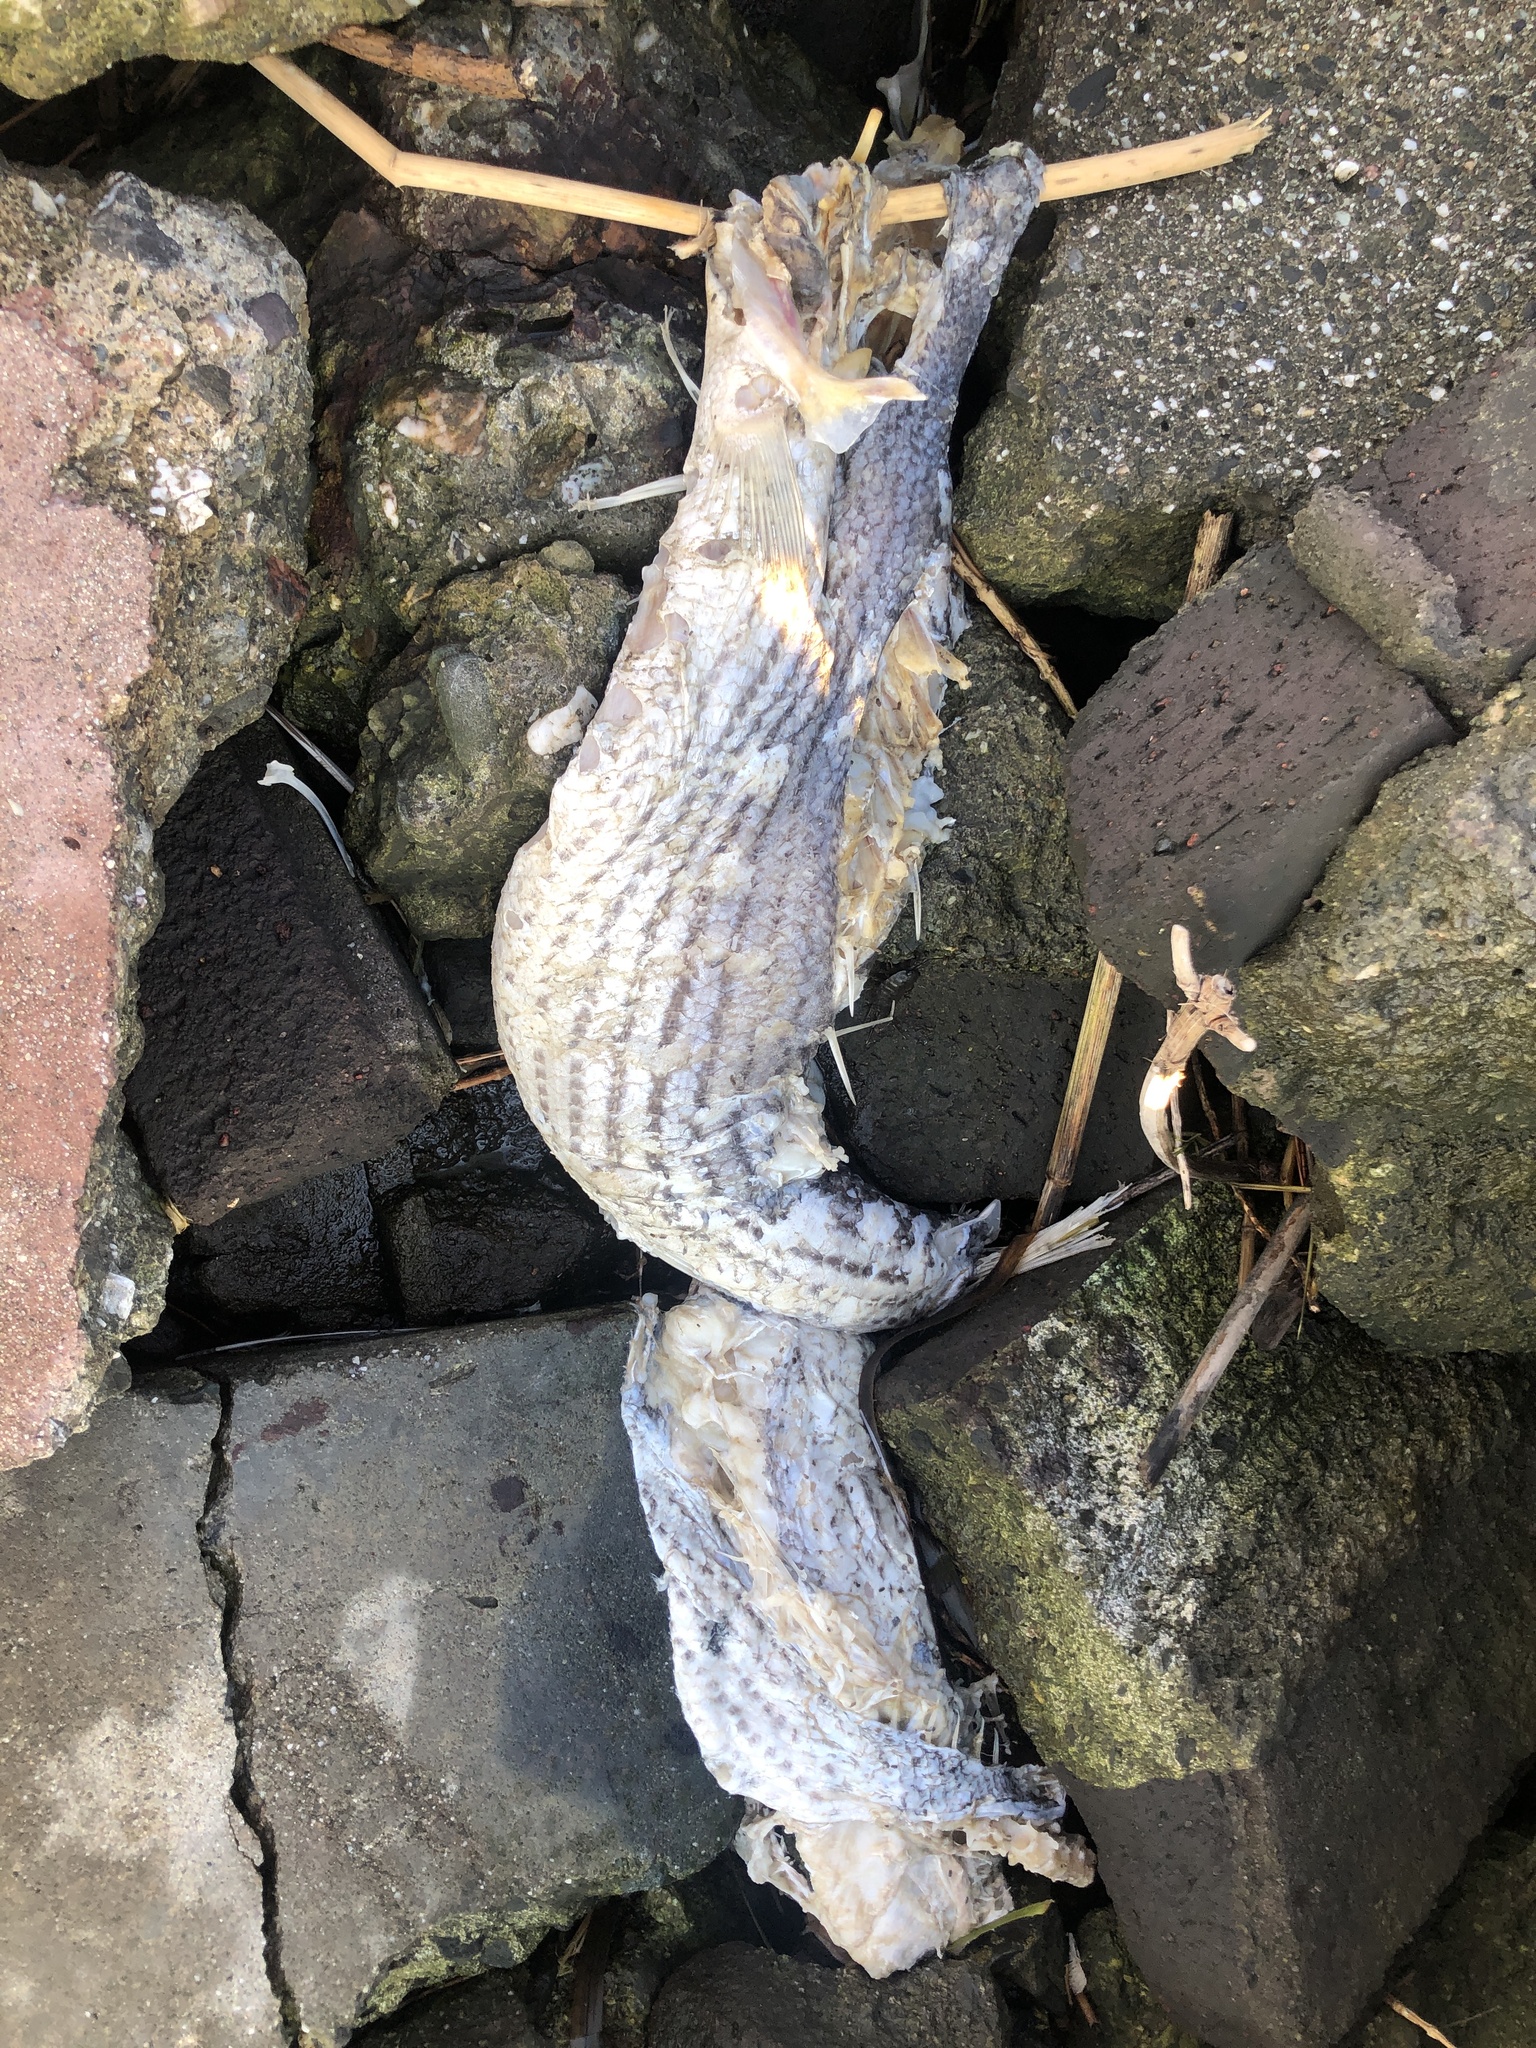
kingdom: Animalia
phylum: Chordata
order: Perciformes
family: Moronidae
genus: Morone
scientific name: Morone saxatilis
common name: Striped bass
